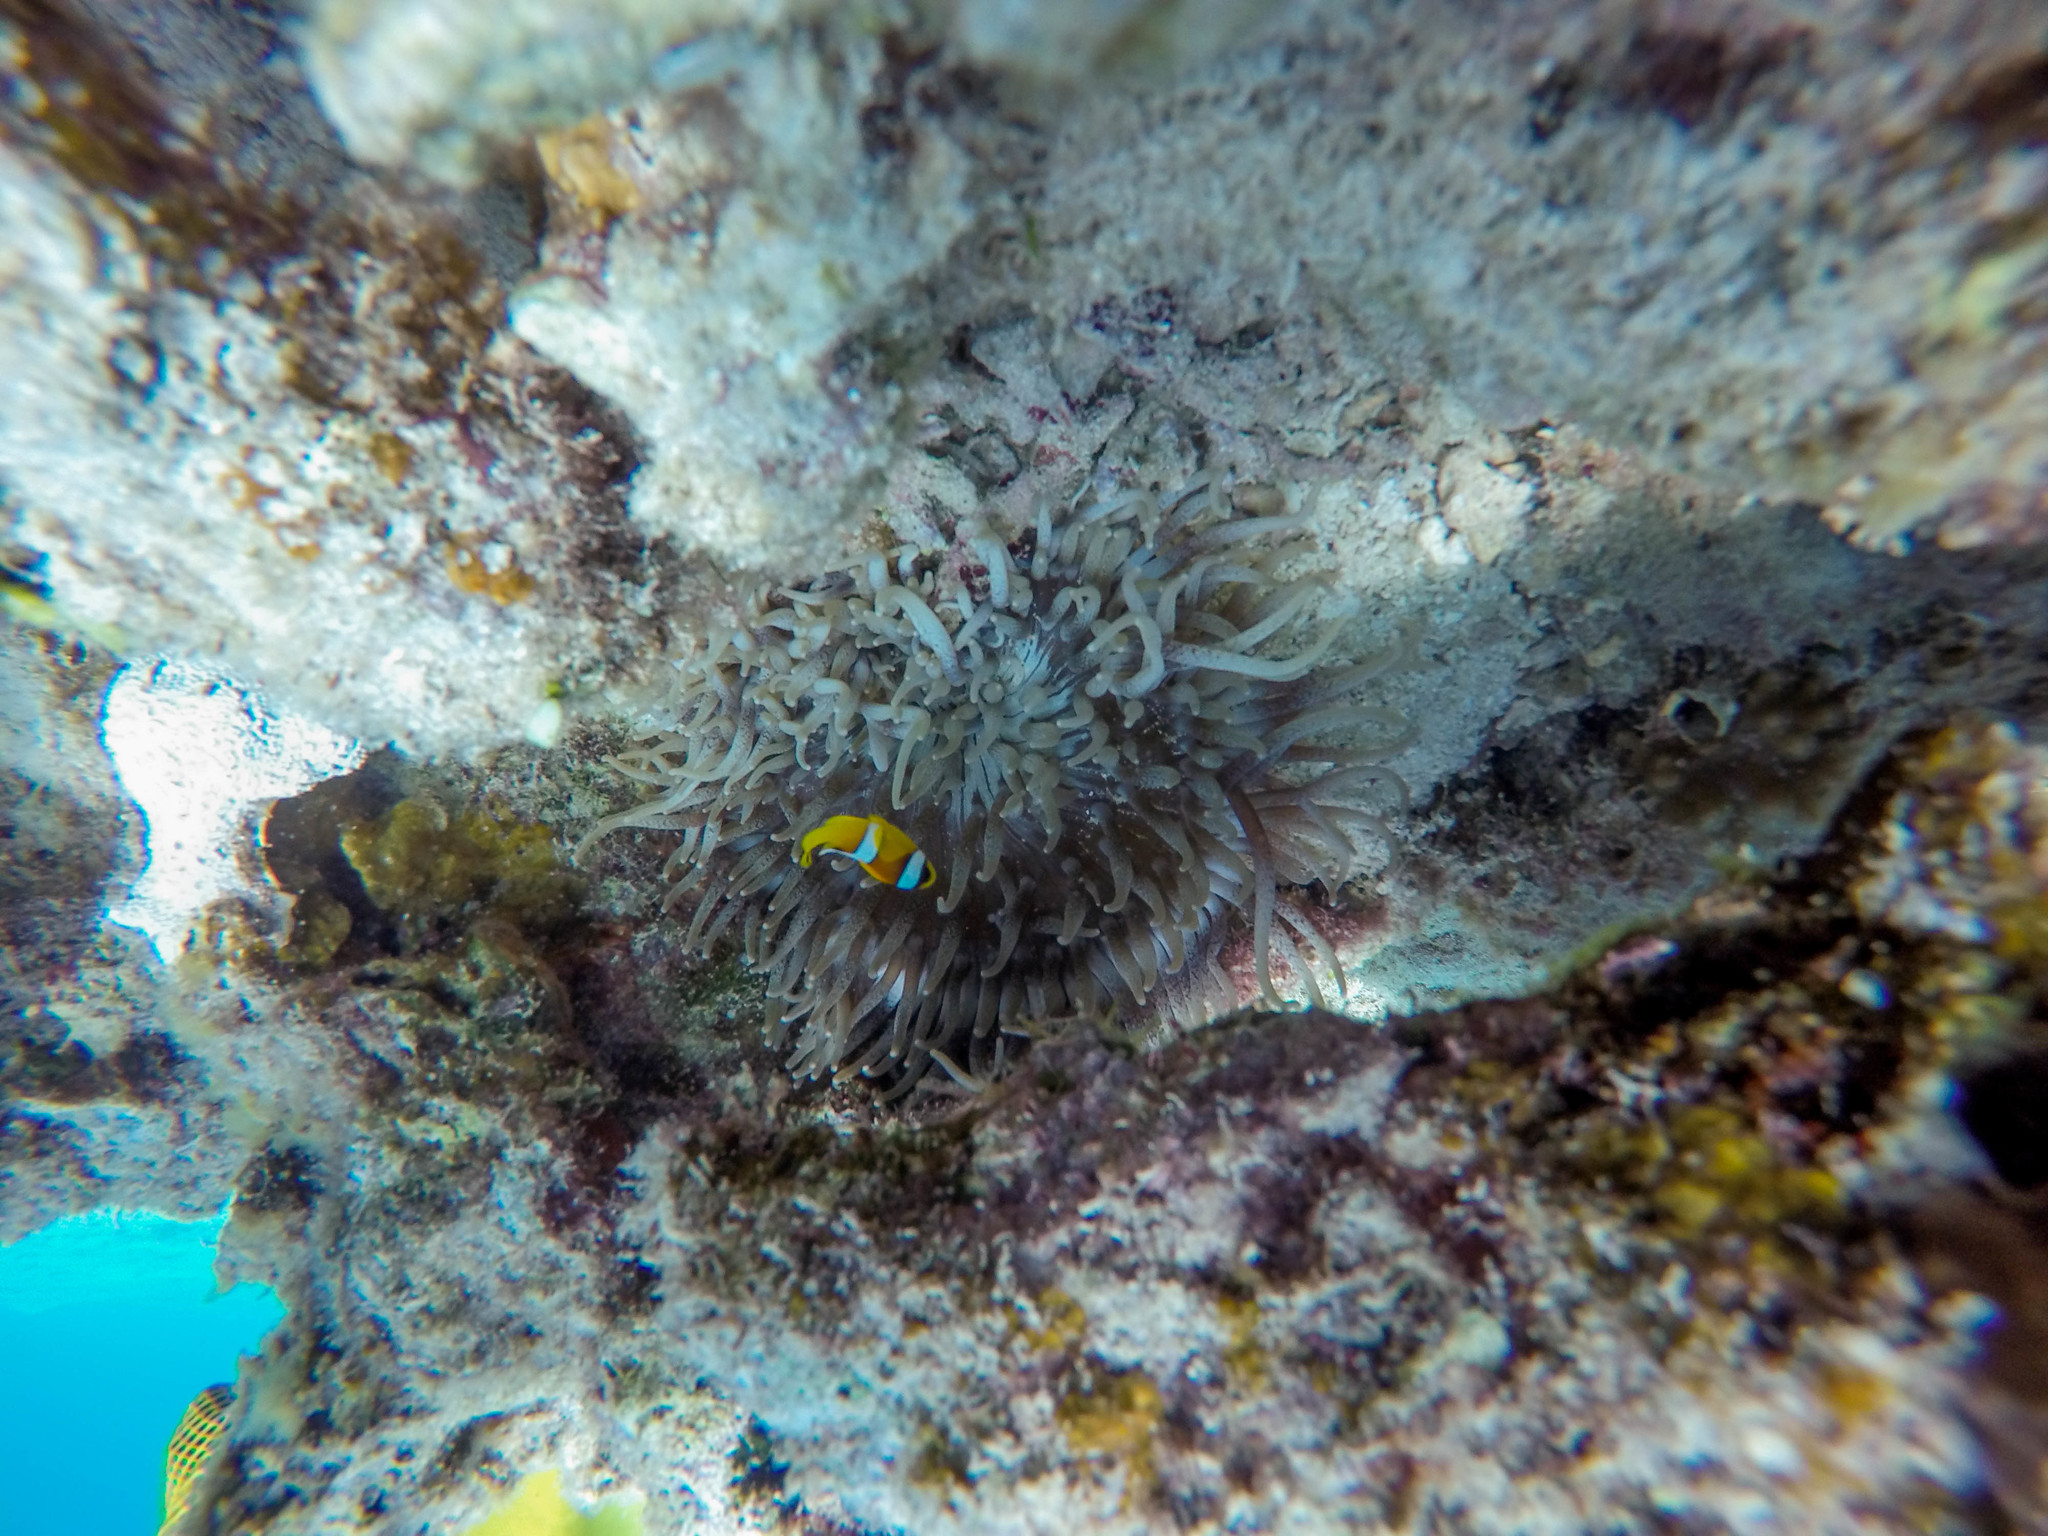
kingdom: Animalia
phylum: Cnidaria
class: Anthozoa
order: Actiniaria
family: Stichodactylidae
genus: Radianthus
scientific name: Radianthus crispa
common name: Leather anemone
